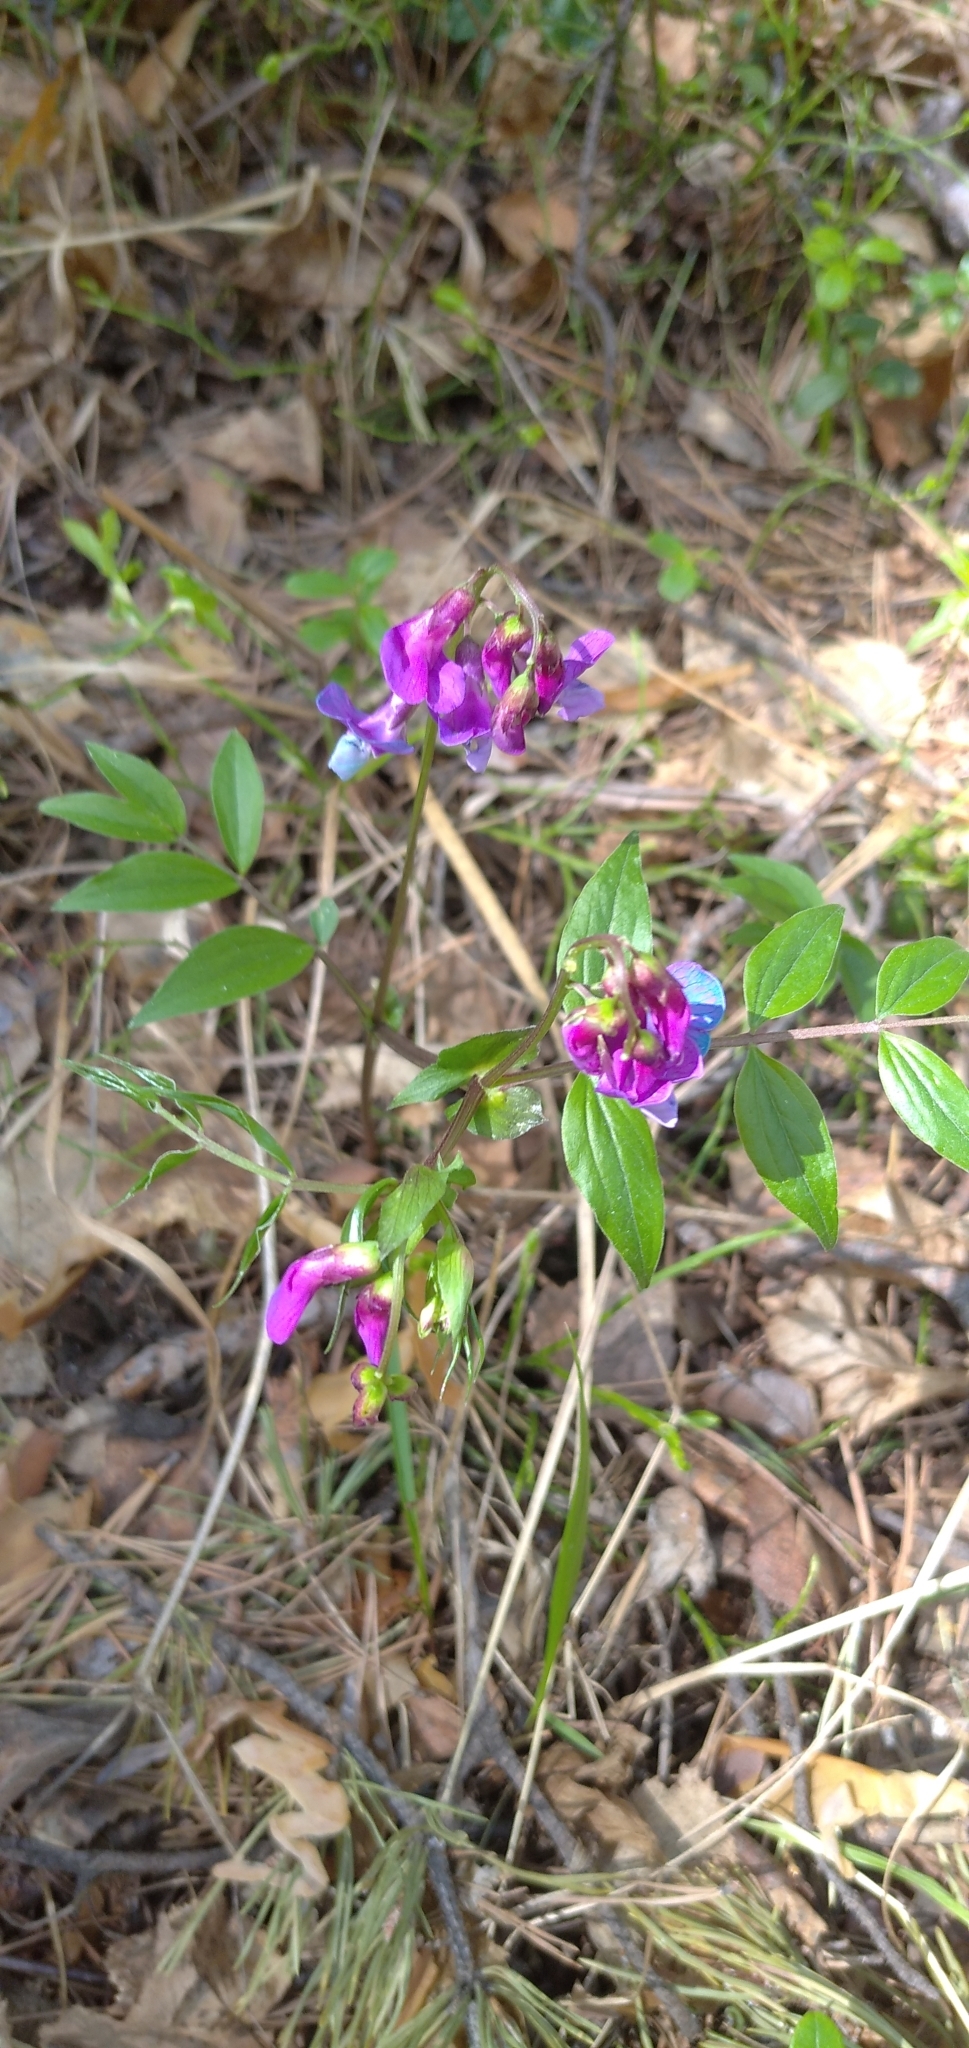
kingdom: Plantae
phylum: Tracheophyta
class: Magnoliopsida
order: Fabales
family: Fabaceae
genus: Lathyrus
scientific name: Lathyrus vernus
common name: Spring pea
